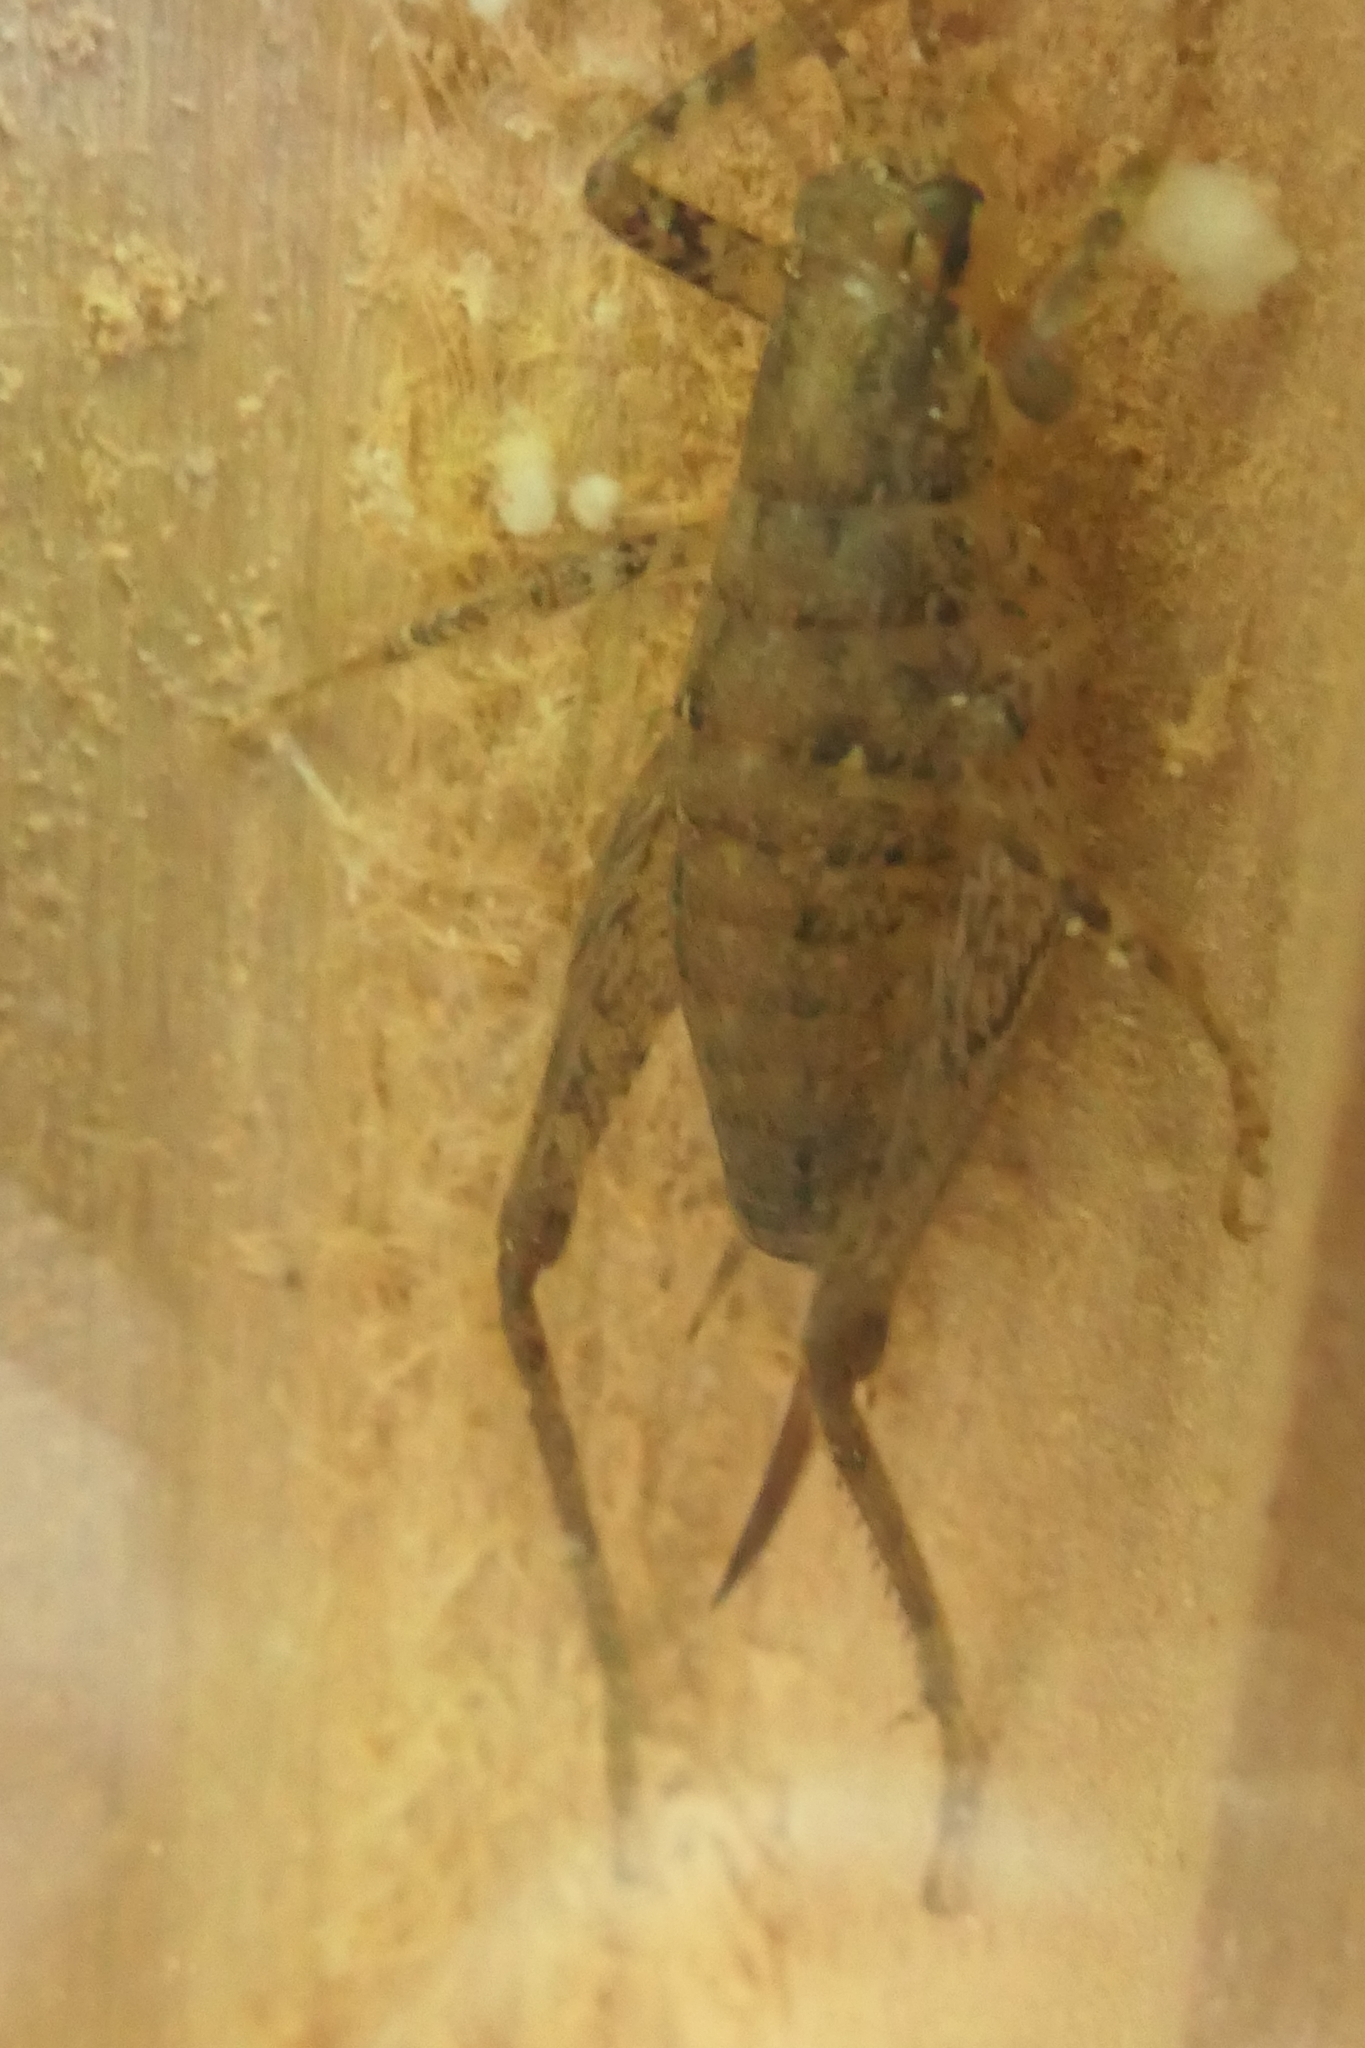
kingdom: Animalia
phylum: Arthropoda
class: Insecta
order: Orthoptera
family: Rhaphidophoridae
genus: Isoplectron
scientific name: Isoplectron armatum
